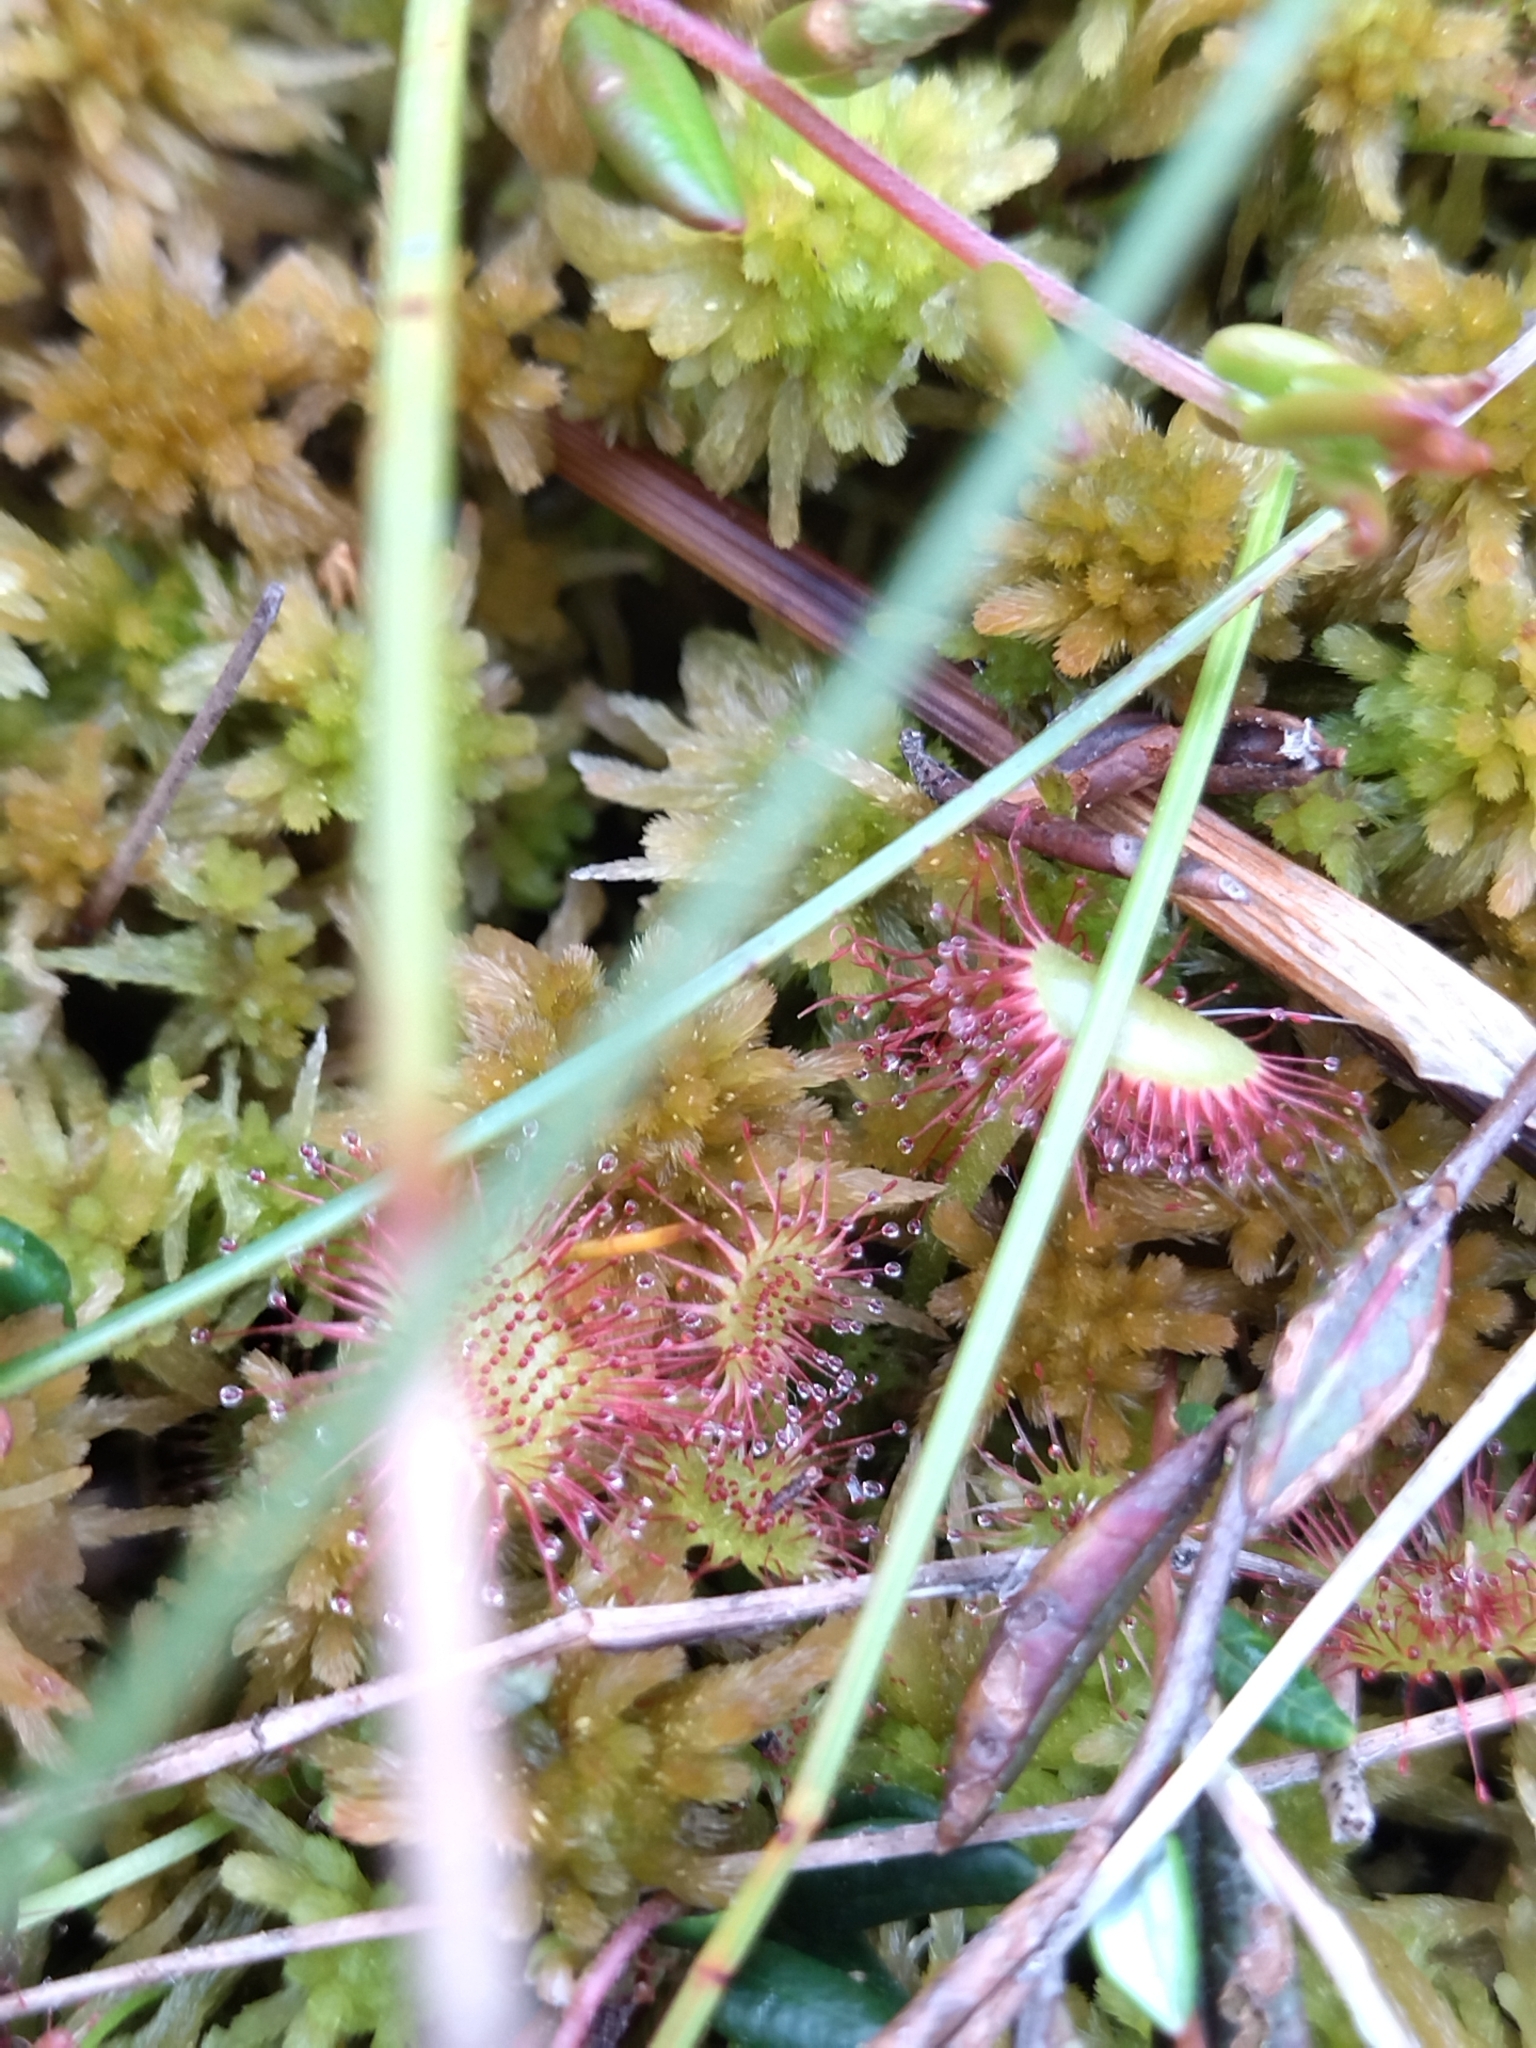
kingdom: Plantae
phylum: Tracheophyta
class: Magnoliopsida
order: Caryophyllales
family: Droseraceae
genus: Drosera
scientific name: Drosera rotundifolia
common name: Round-leaved sundew
